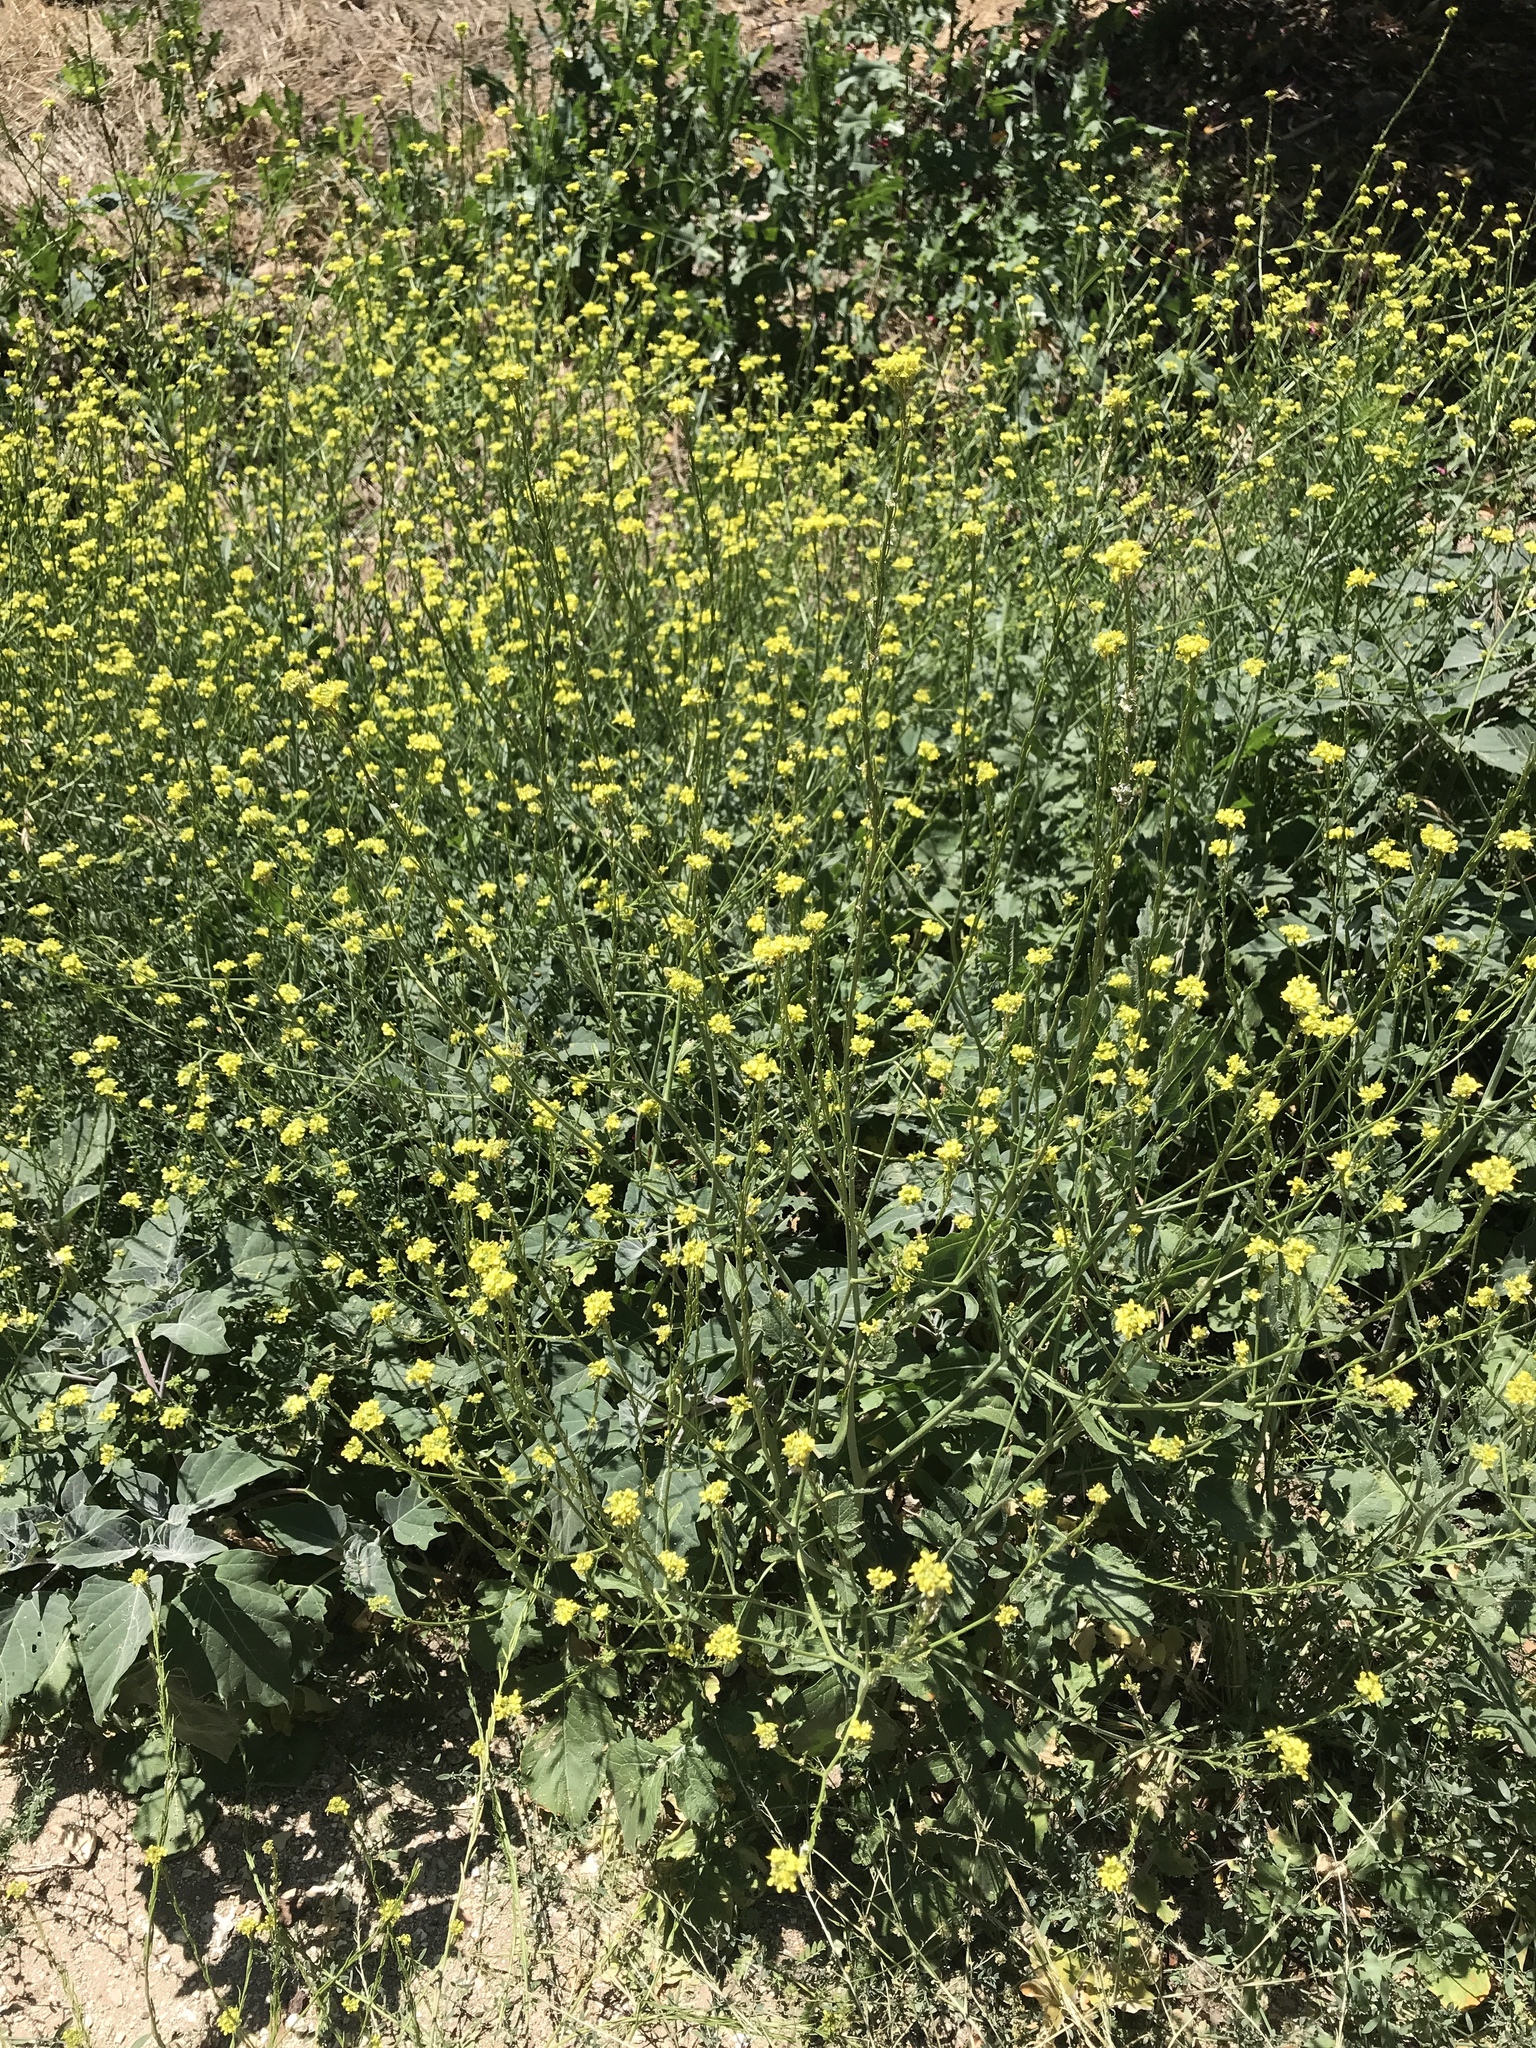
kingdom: Plantae
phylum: Tracheophyta
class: Magnoliopsida
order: Brassicales
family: Brassicaceae
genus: Hirschfeldia
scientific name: Hirschfeldia incana
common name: Hoary mustard
